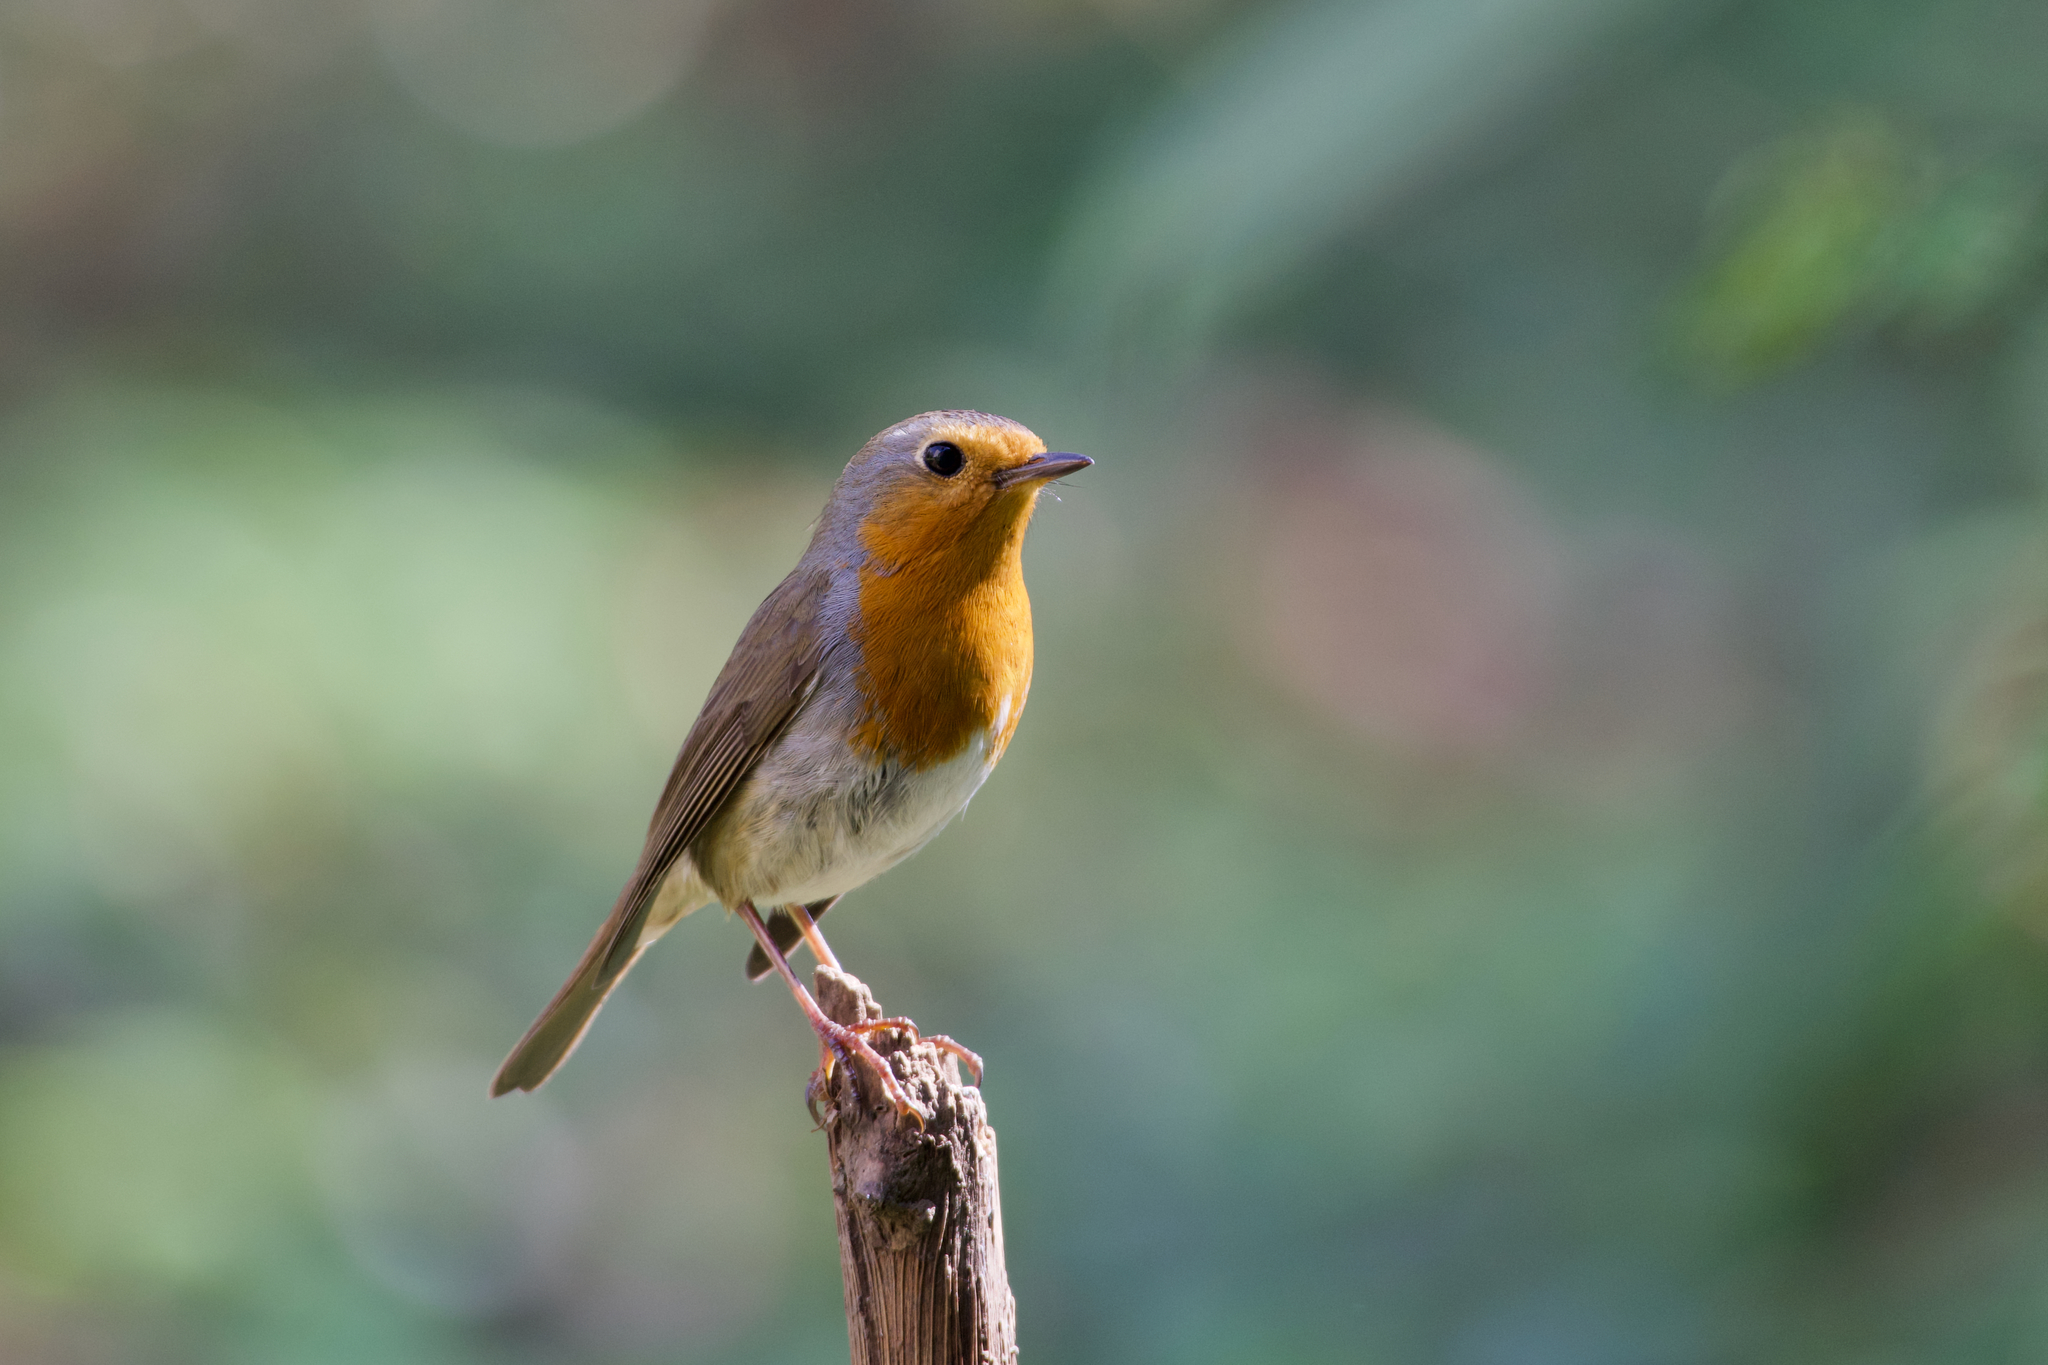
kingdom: Animalia
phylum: Chordata
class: Aves
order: Passeriformes
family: Muscicapidae
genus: Erithacus
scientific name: Erithacus rubecula
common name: European robin
